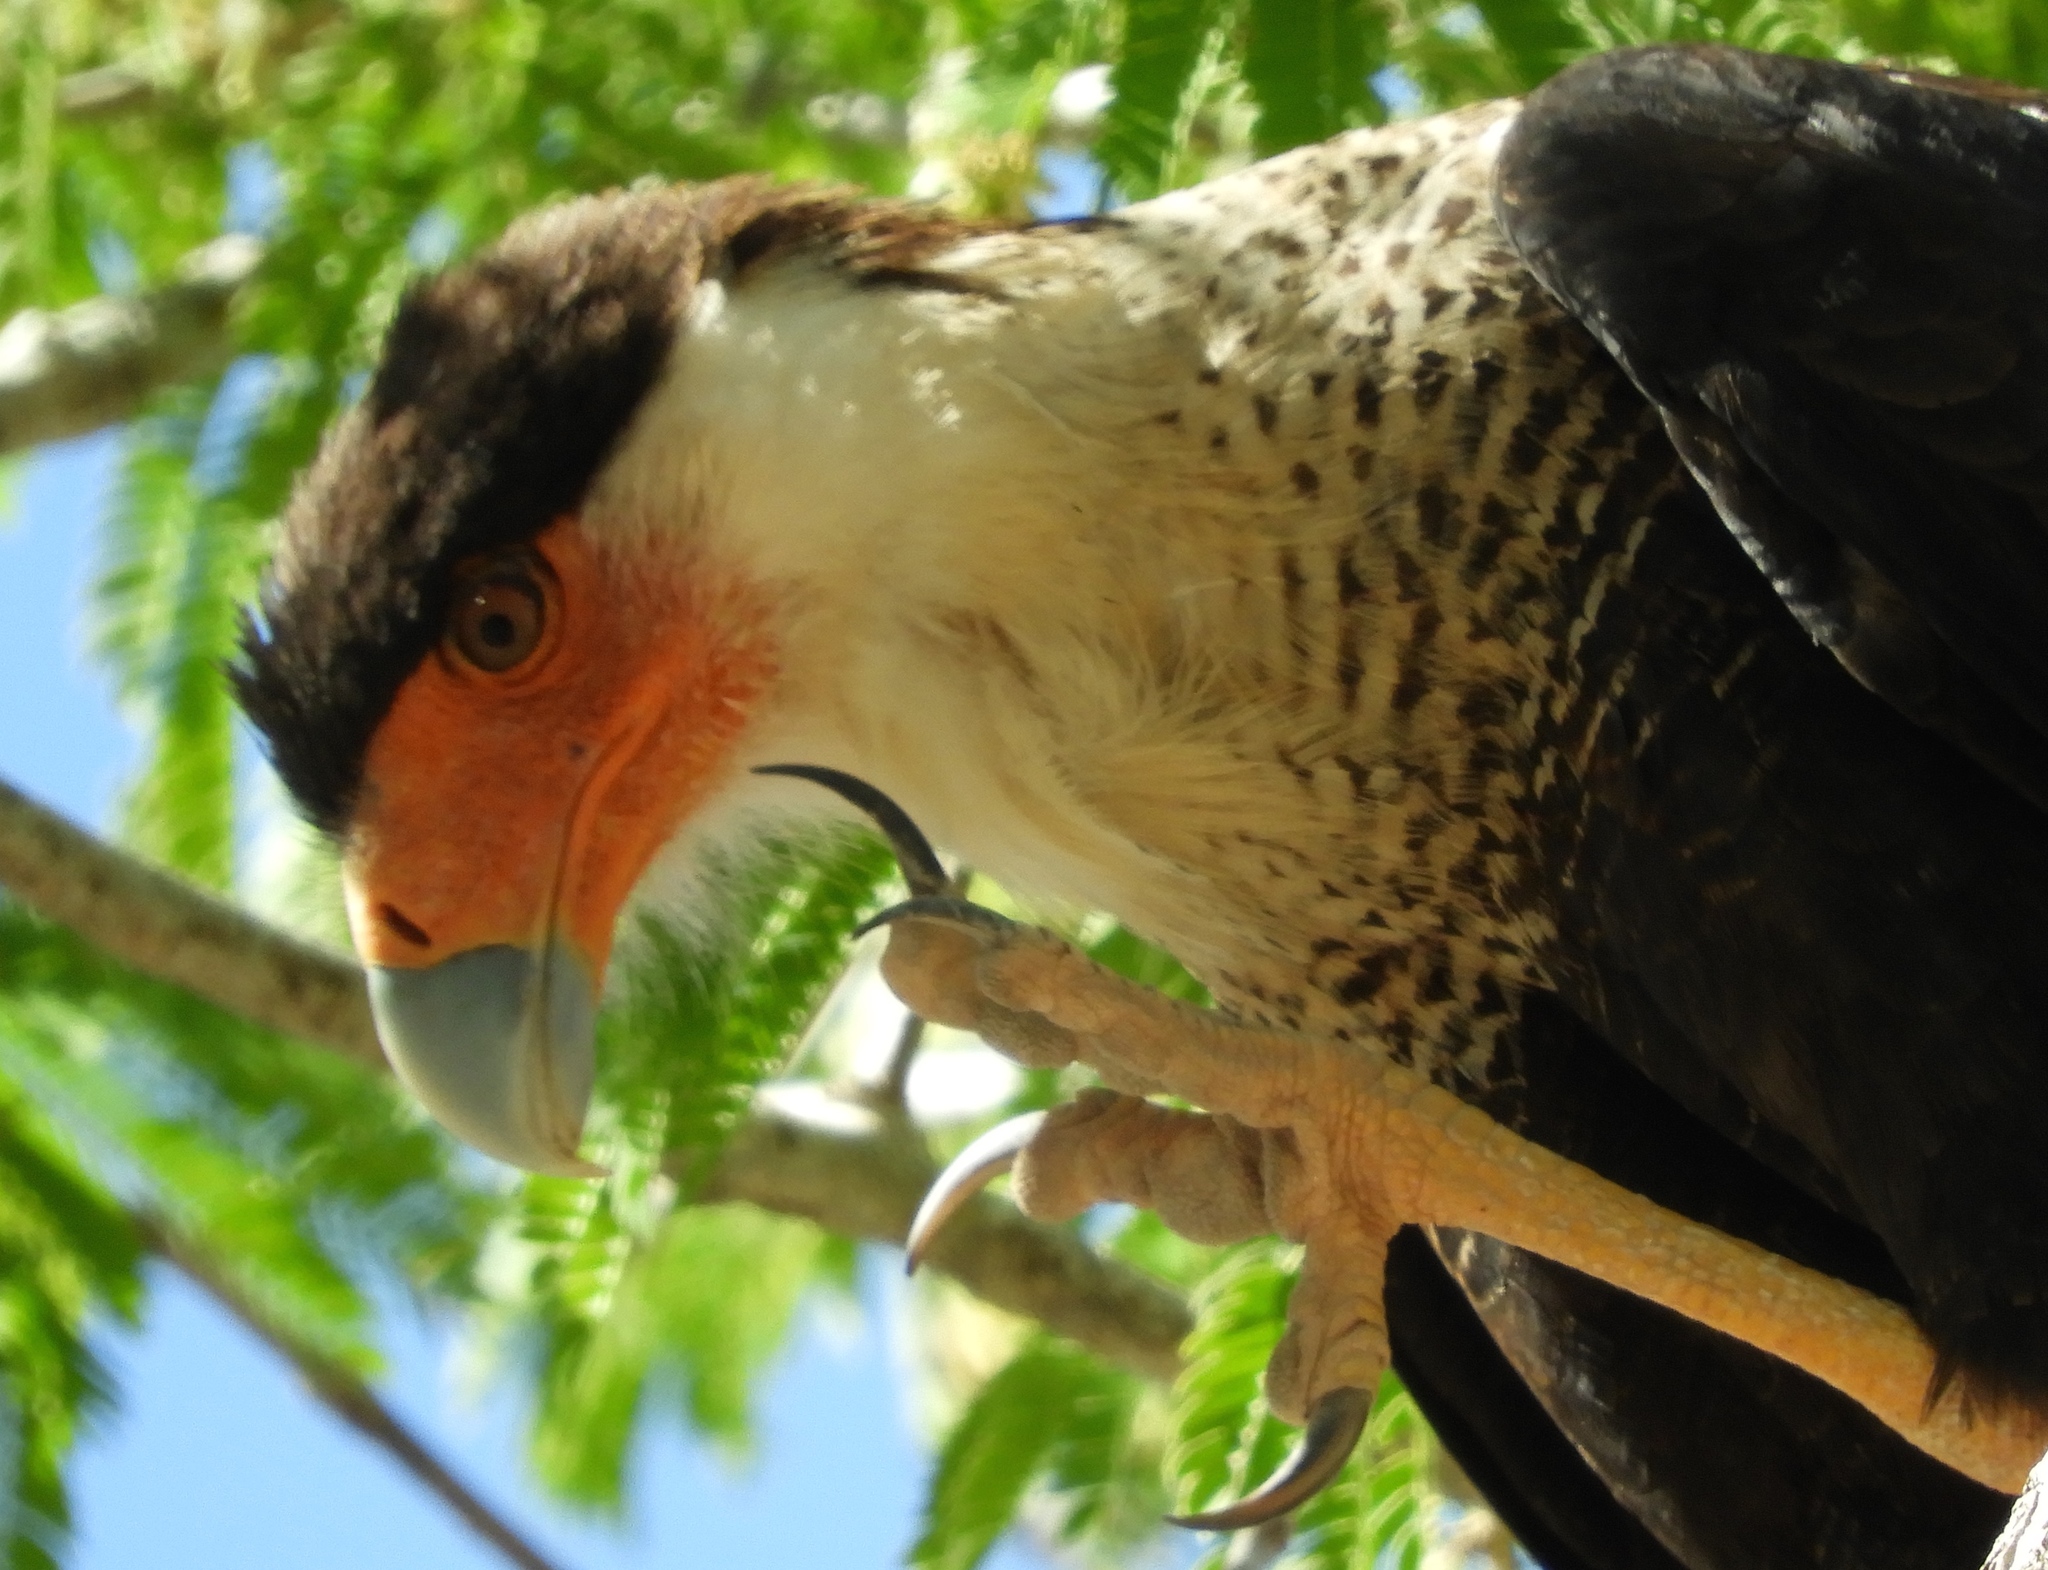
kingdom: Animalia
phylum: Chordata
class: Aves
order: Falconiformes
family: Falconidae
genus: Caracara
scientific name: Caracara plancus
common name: Southern caracara
